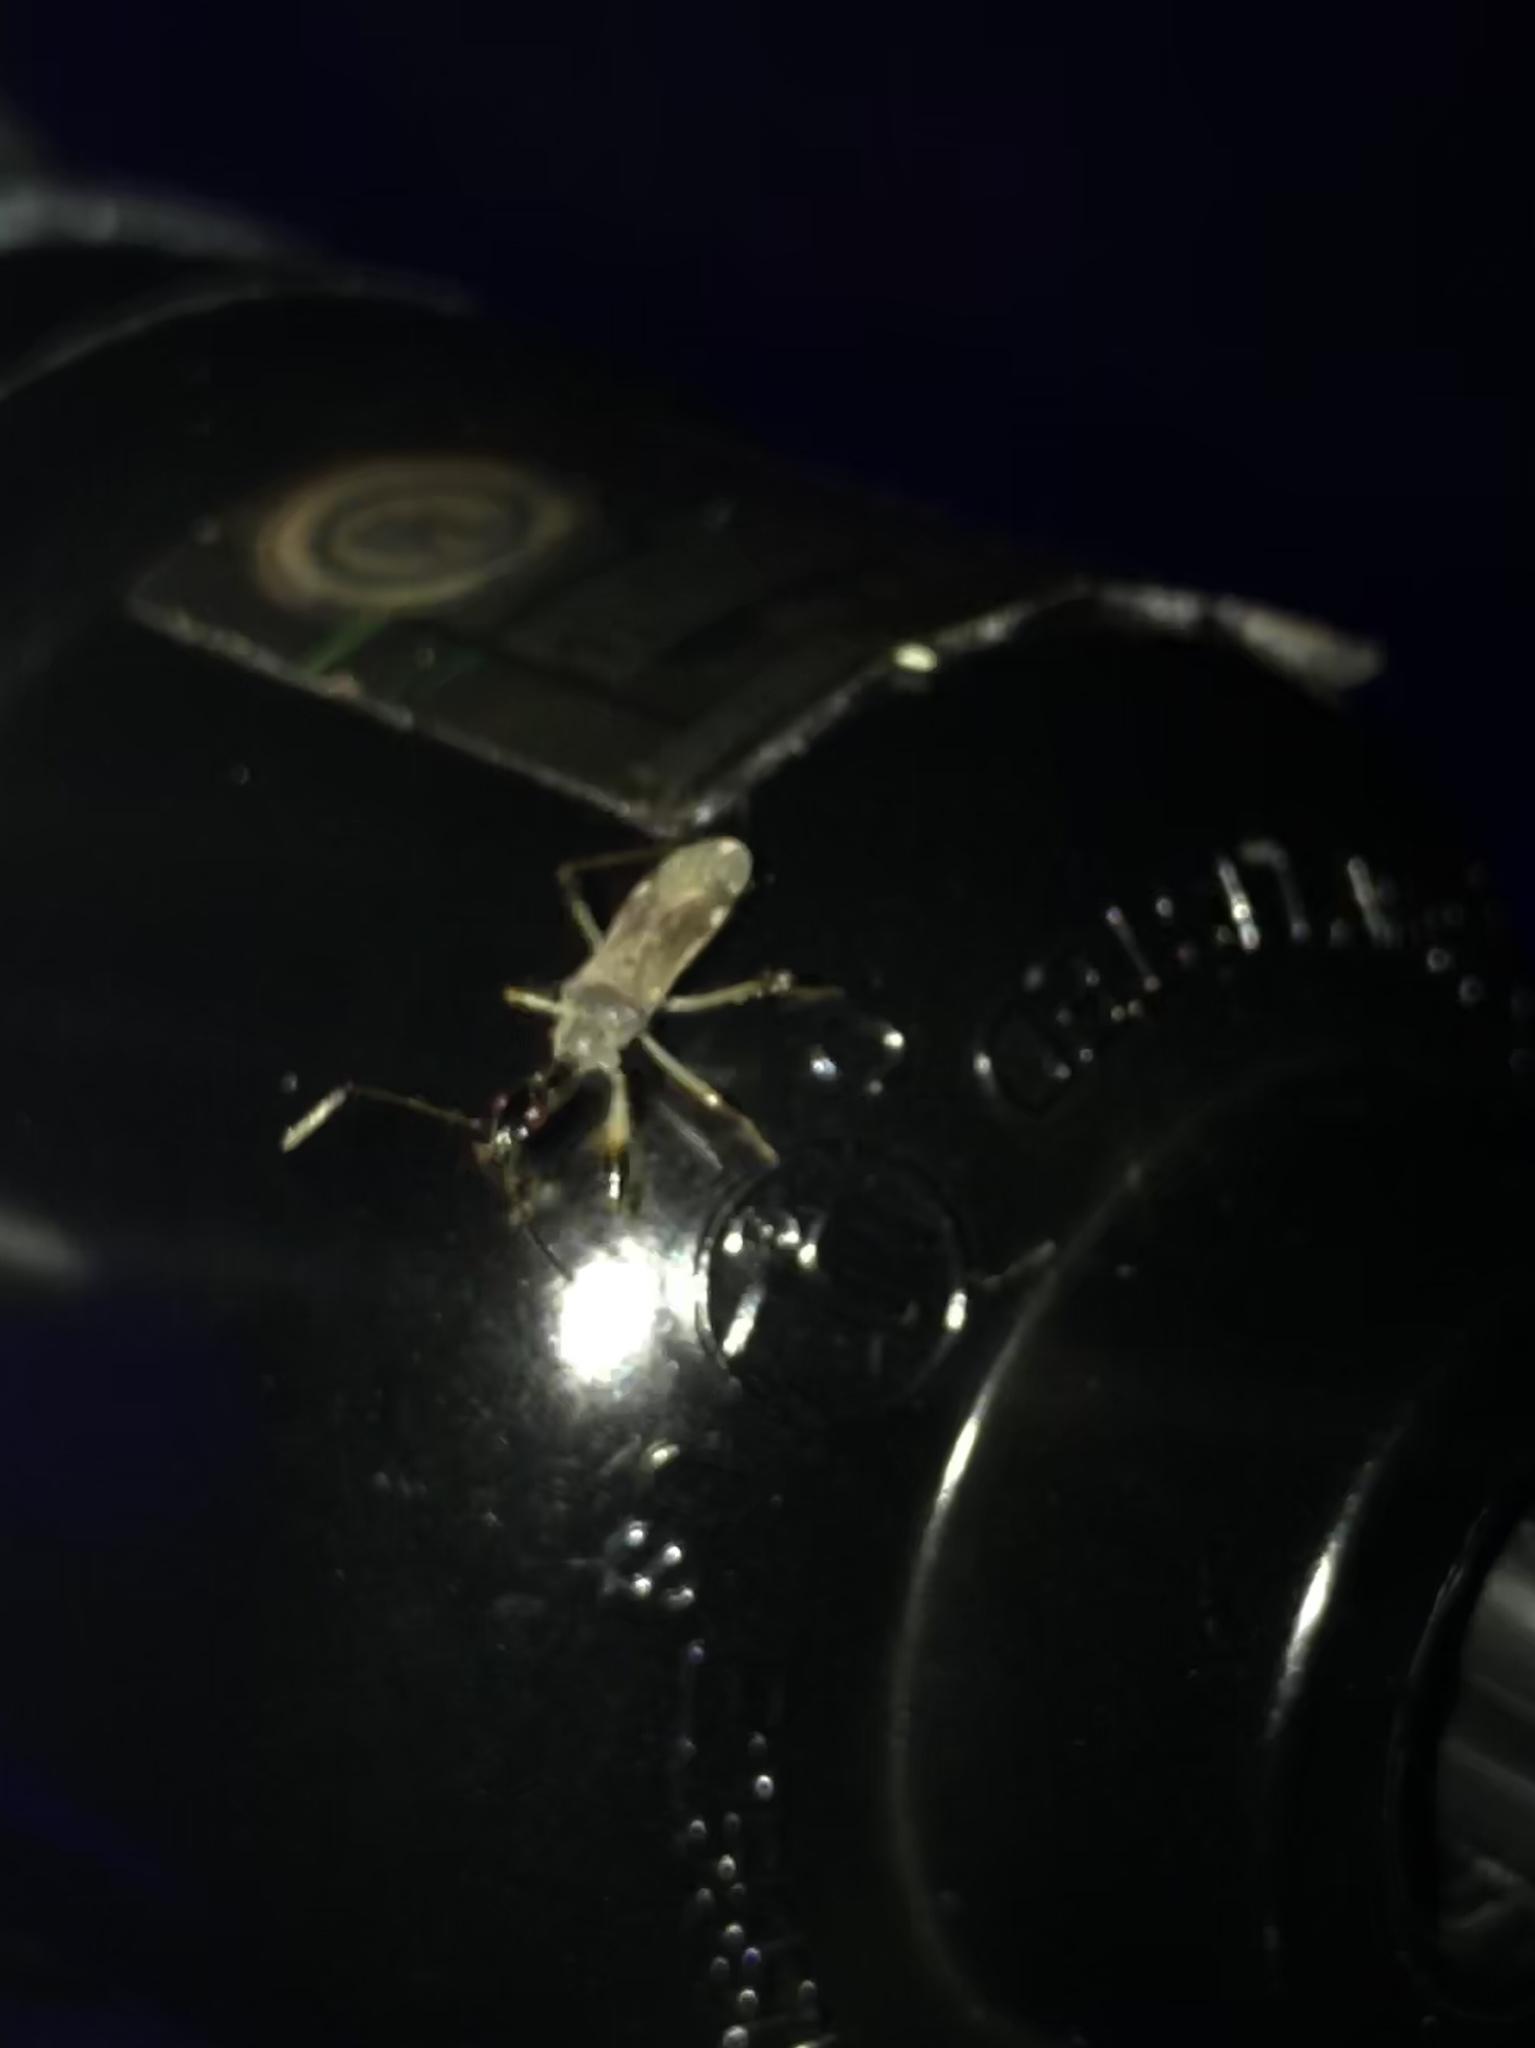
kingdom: Animalia
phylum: Arthropoda
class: Insecta
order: Hemiptera
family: Rhyparochromidae
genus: Myodocha
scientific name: Myodocha serripes
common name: Long-necked seed bug
